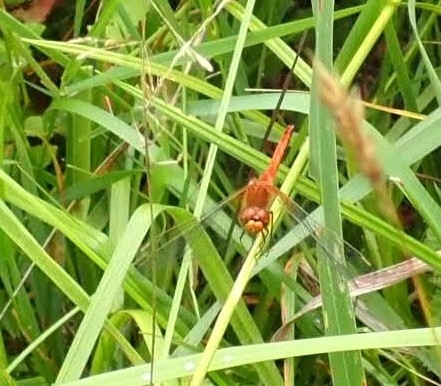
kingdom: Animalia
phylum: Arthropoda
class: Insecta
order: Odonata
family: Libellulidae
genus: Sympetrum
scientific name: Sympetrum flaveolum
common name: Yellow-winged darter
